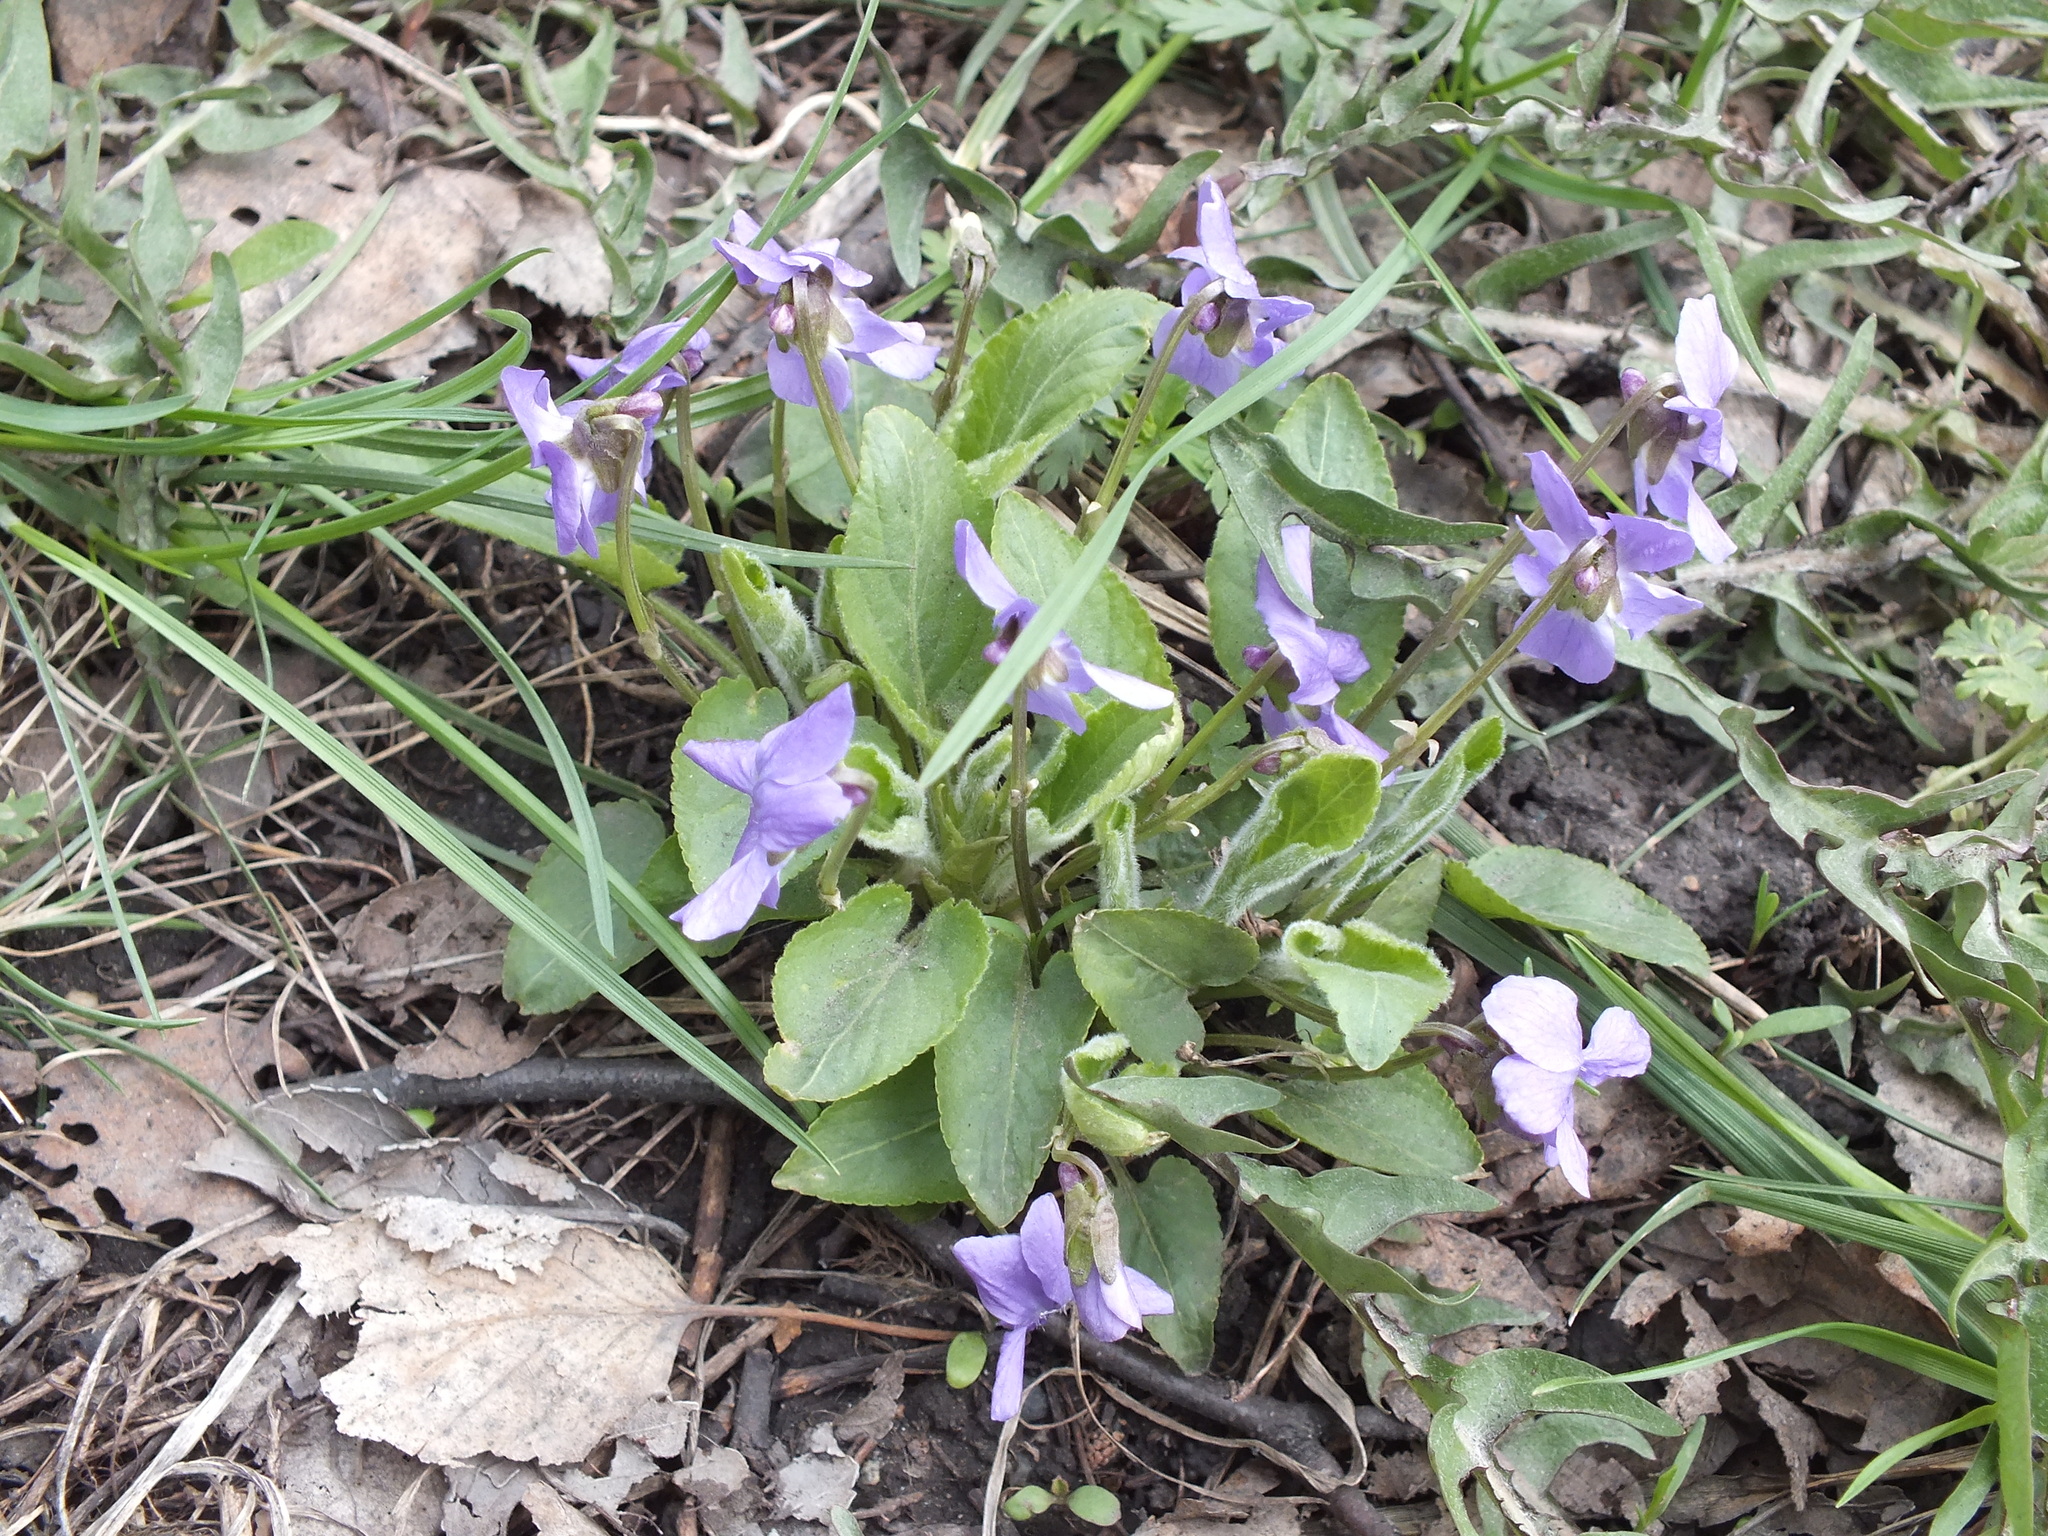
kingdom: Plantae
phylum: Tracheophyta
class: Magnoliopsida
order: Malpighiales
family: Violaceae
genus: Viola
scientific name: Viola hirta
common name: Hairy violet
